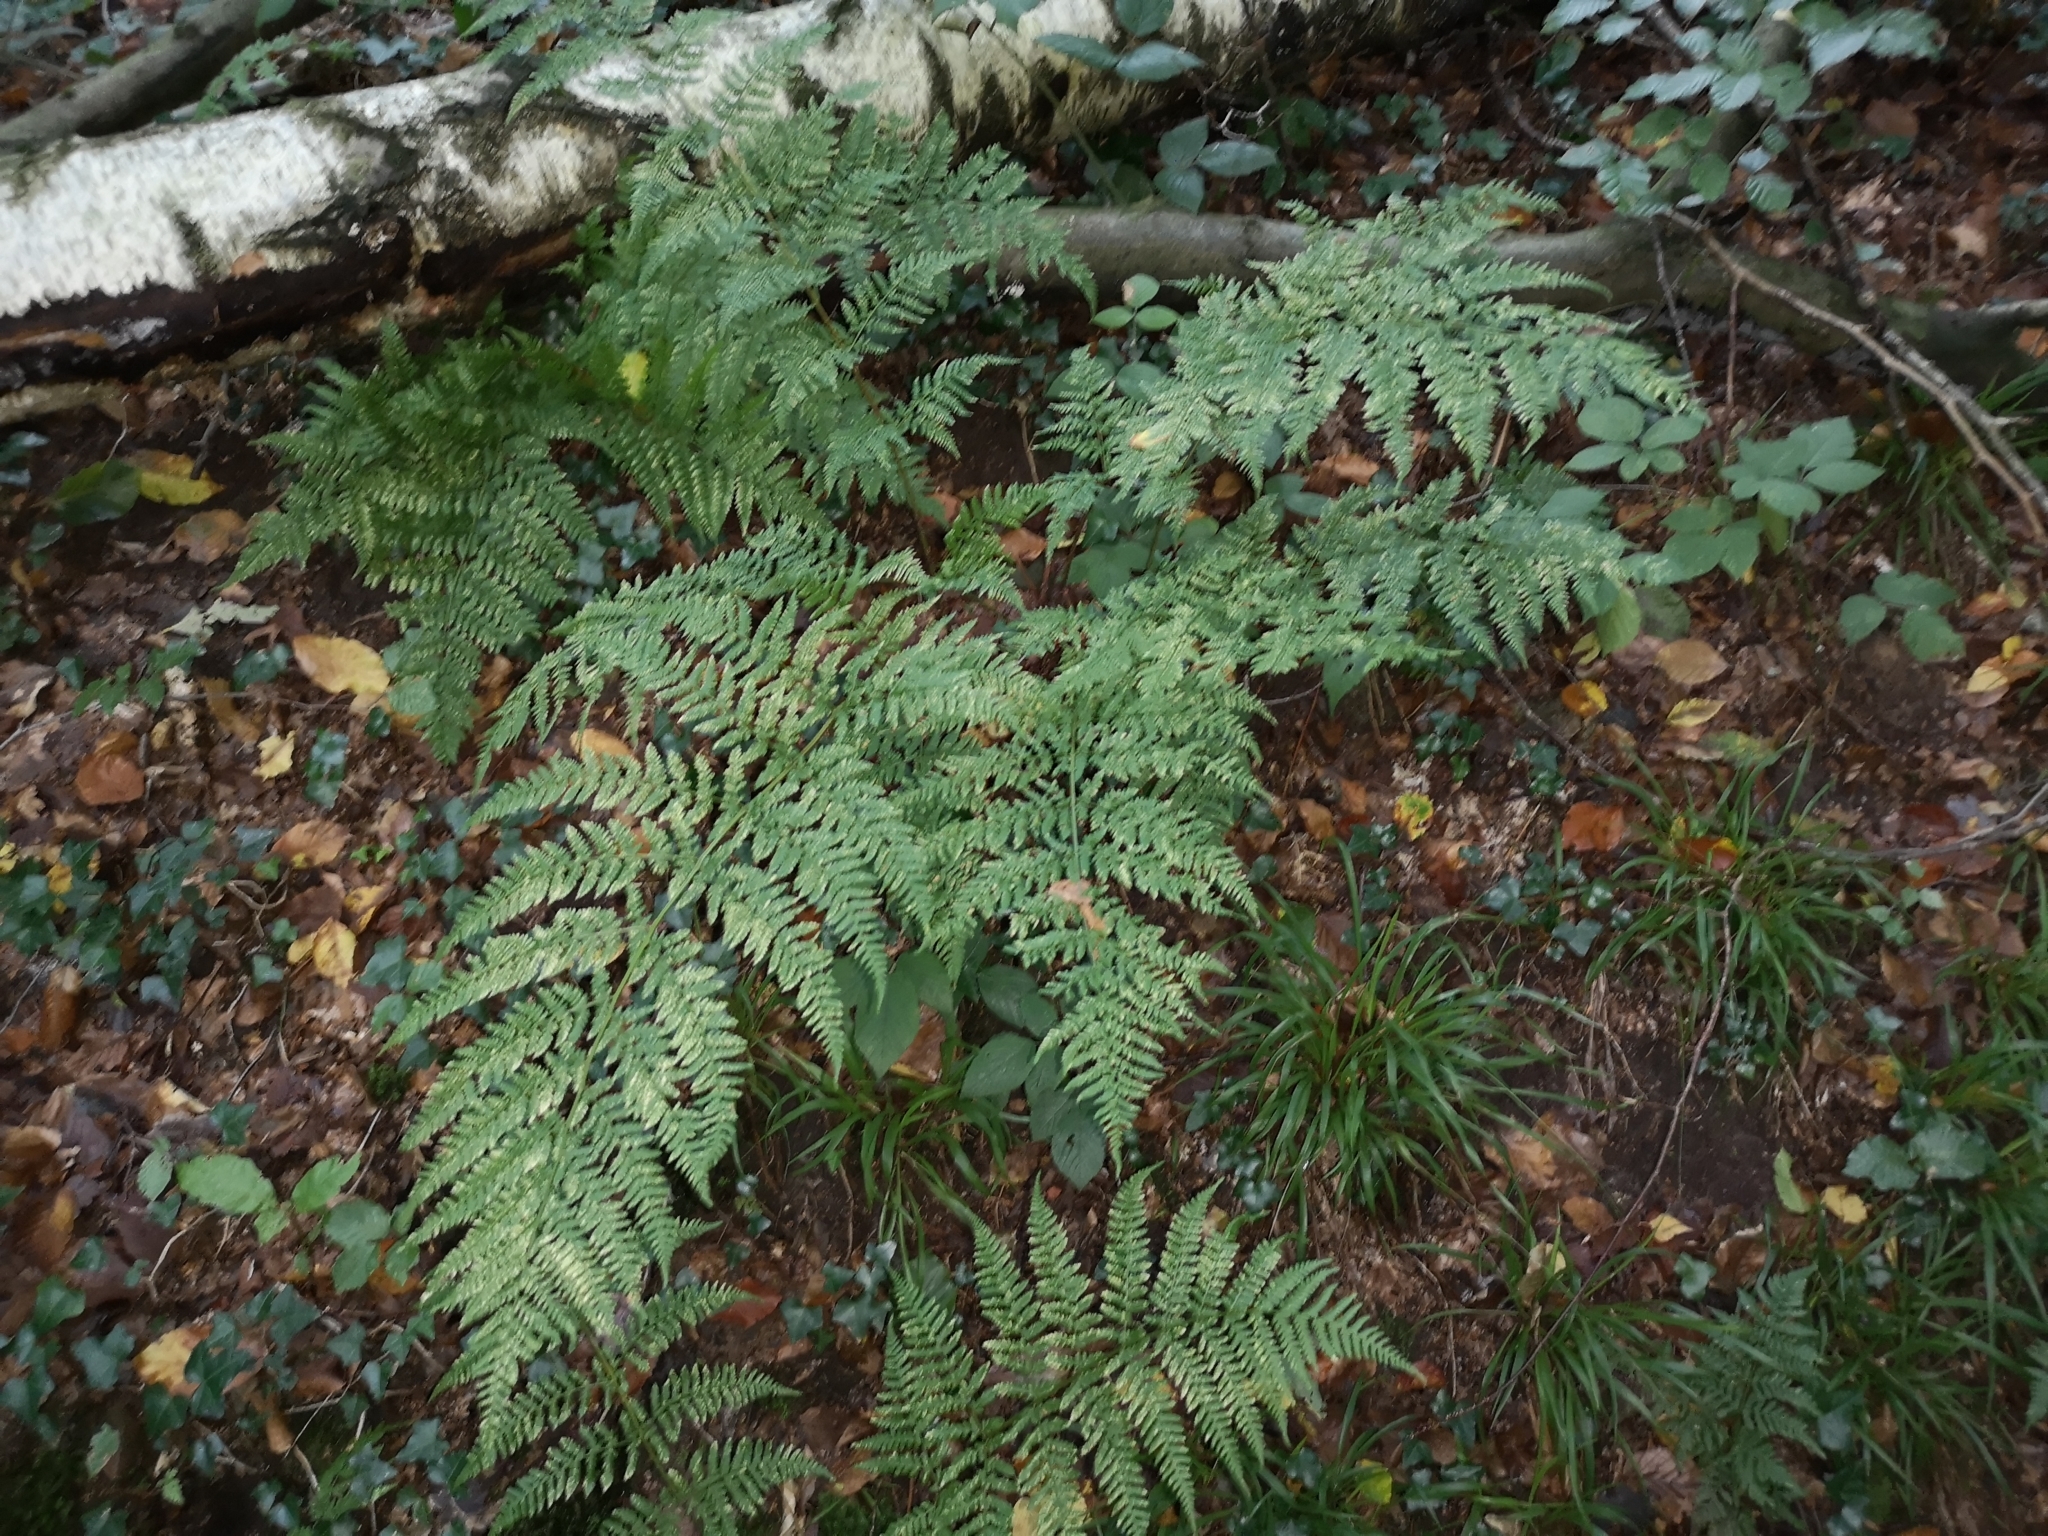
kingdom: Plantae
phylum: Tracheophyta
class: Polypodiopsida
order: Polypodiales
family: Dryopteridaceae
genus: Dryopteris
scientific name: Dryopteris dilatata
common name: Broad buckler-fern
